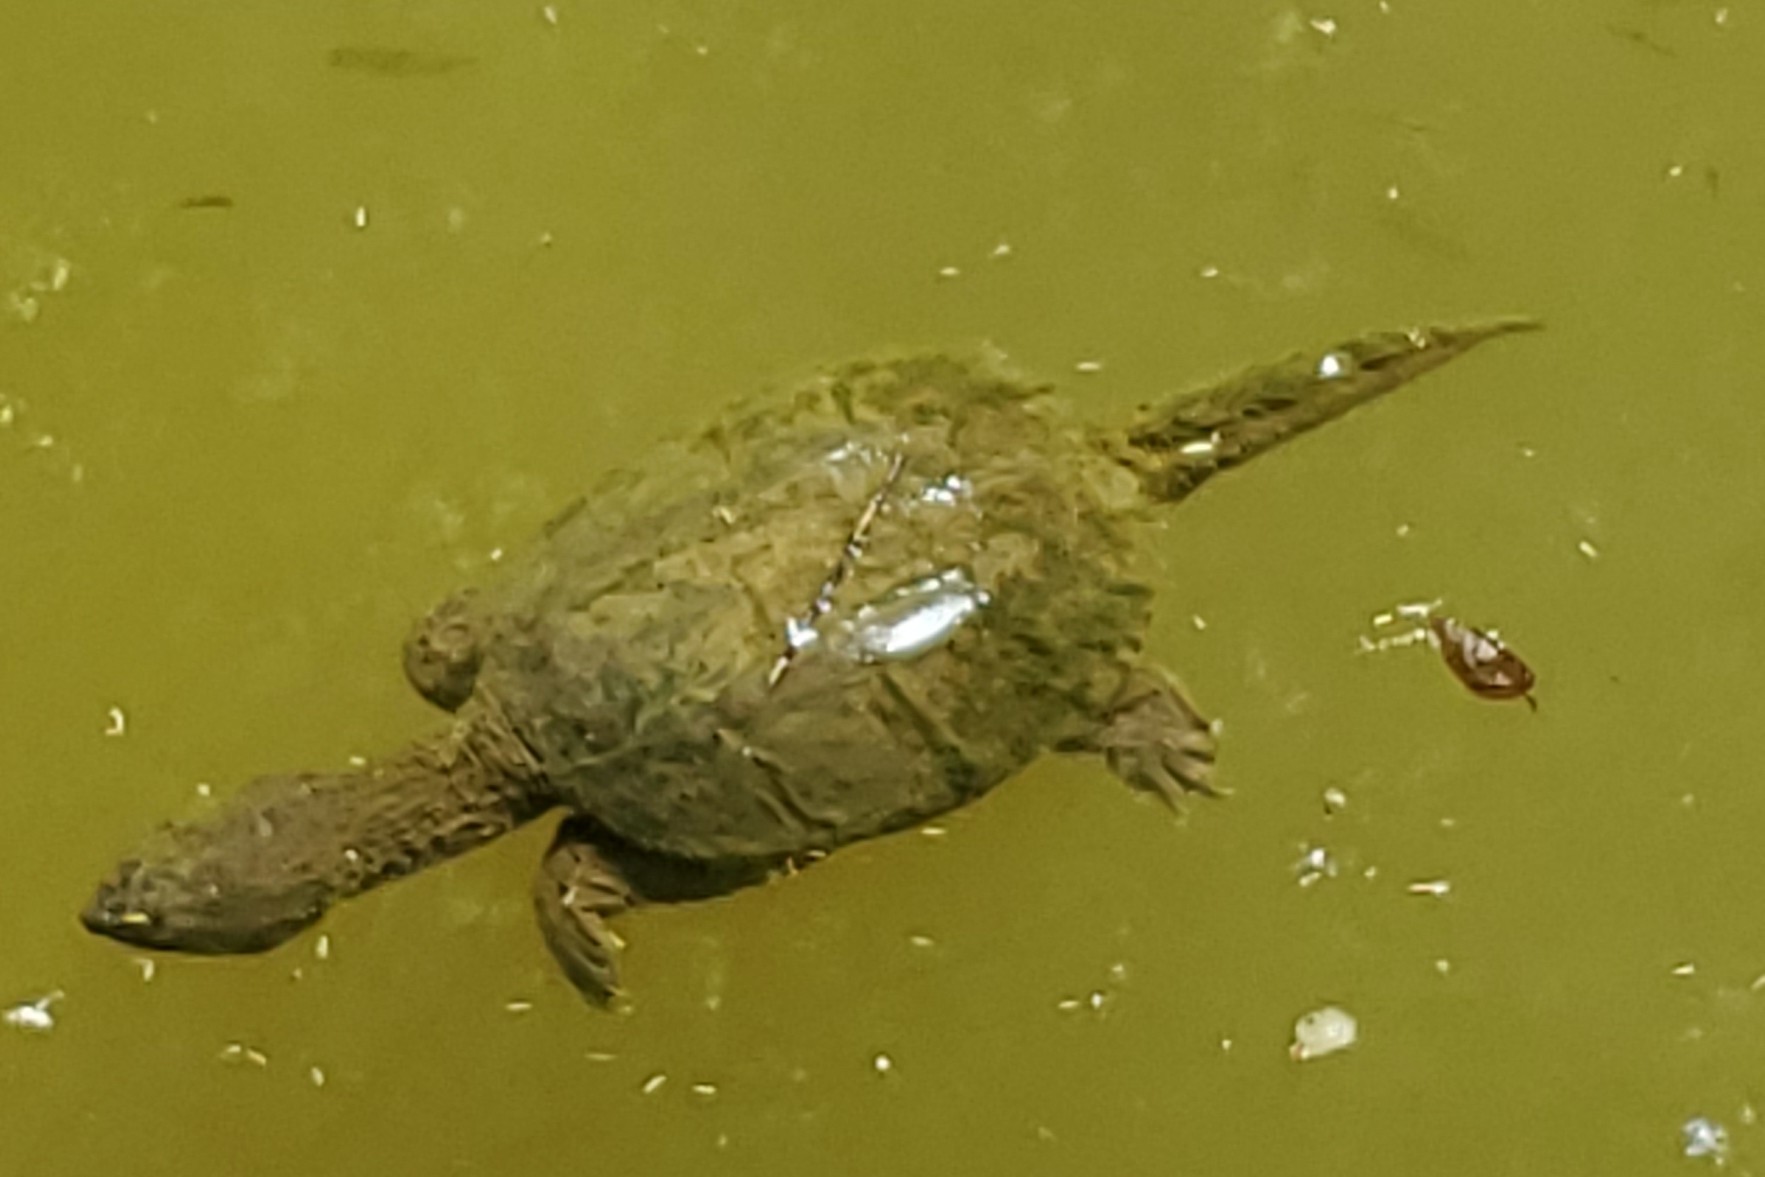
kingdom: Animalia
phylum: Chordata
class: Testudines
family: Chelydridae
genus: Chelydra
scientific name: Chelydra serpentina
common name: Common snapping turtle
